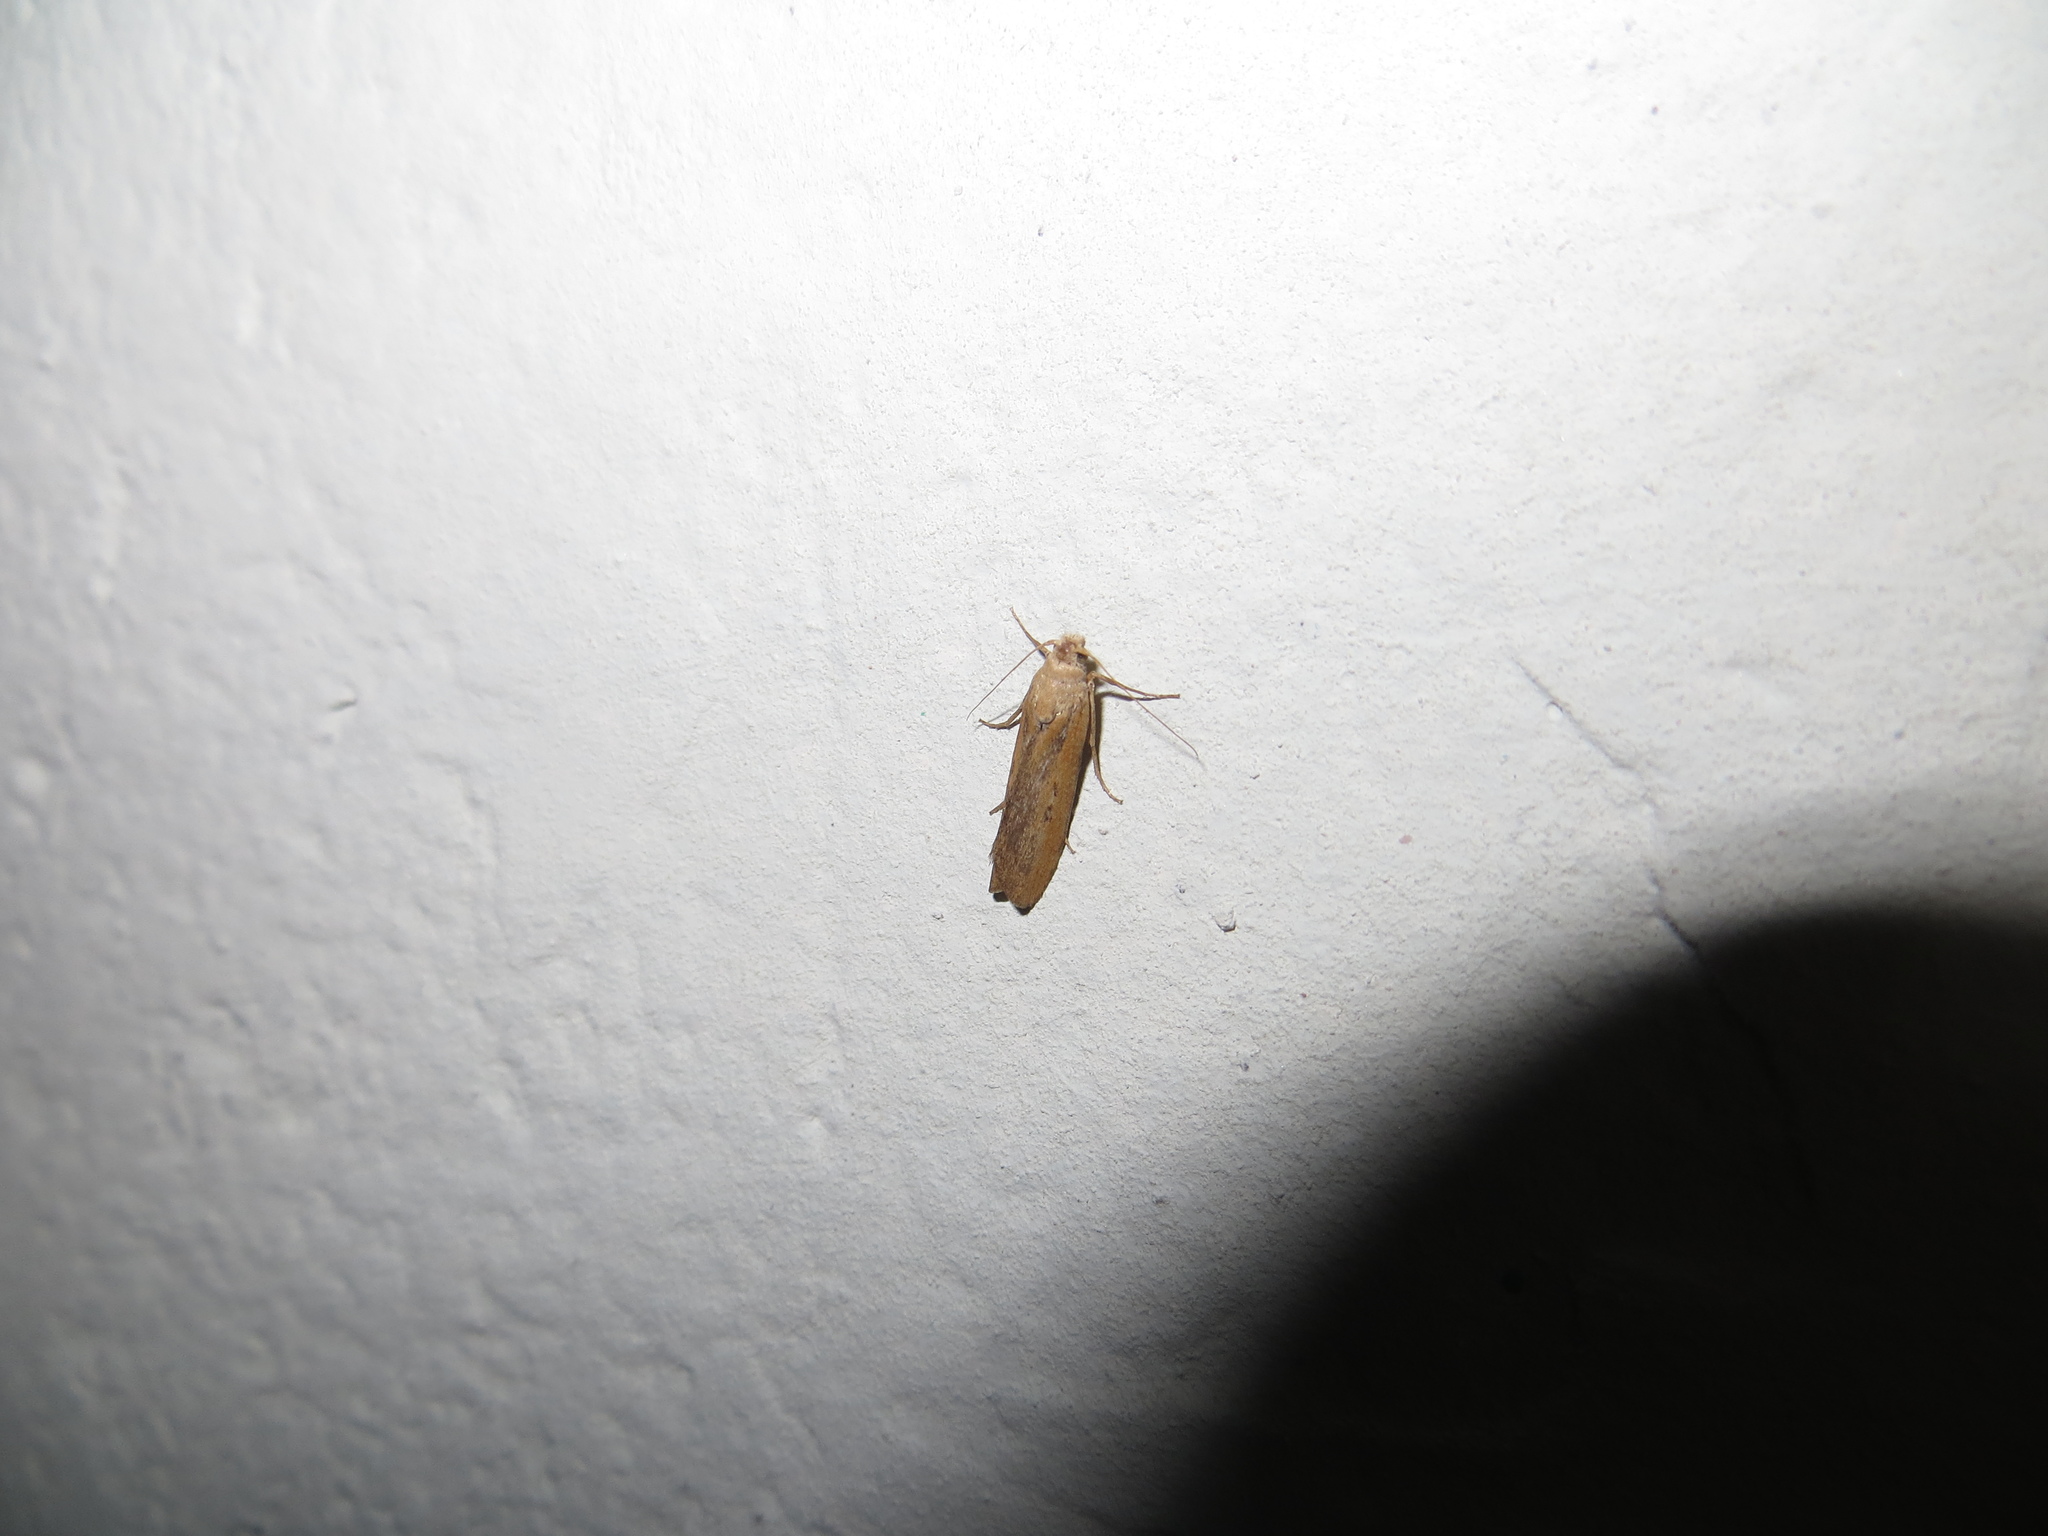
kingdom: Animalia
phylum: Arthropoda
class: Insecta
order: Lepidoptera
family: Pyralidae
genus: Aphomia
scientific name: Aphomia zelleri
